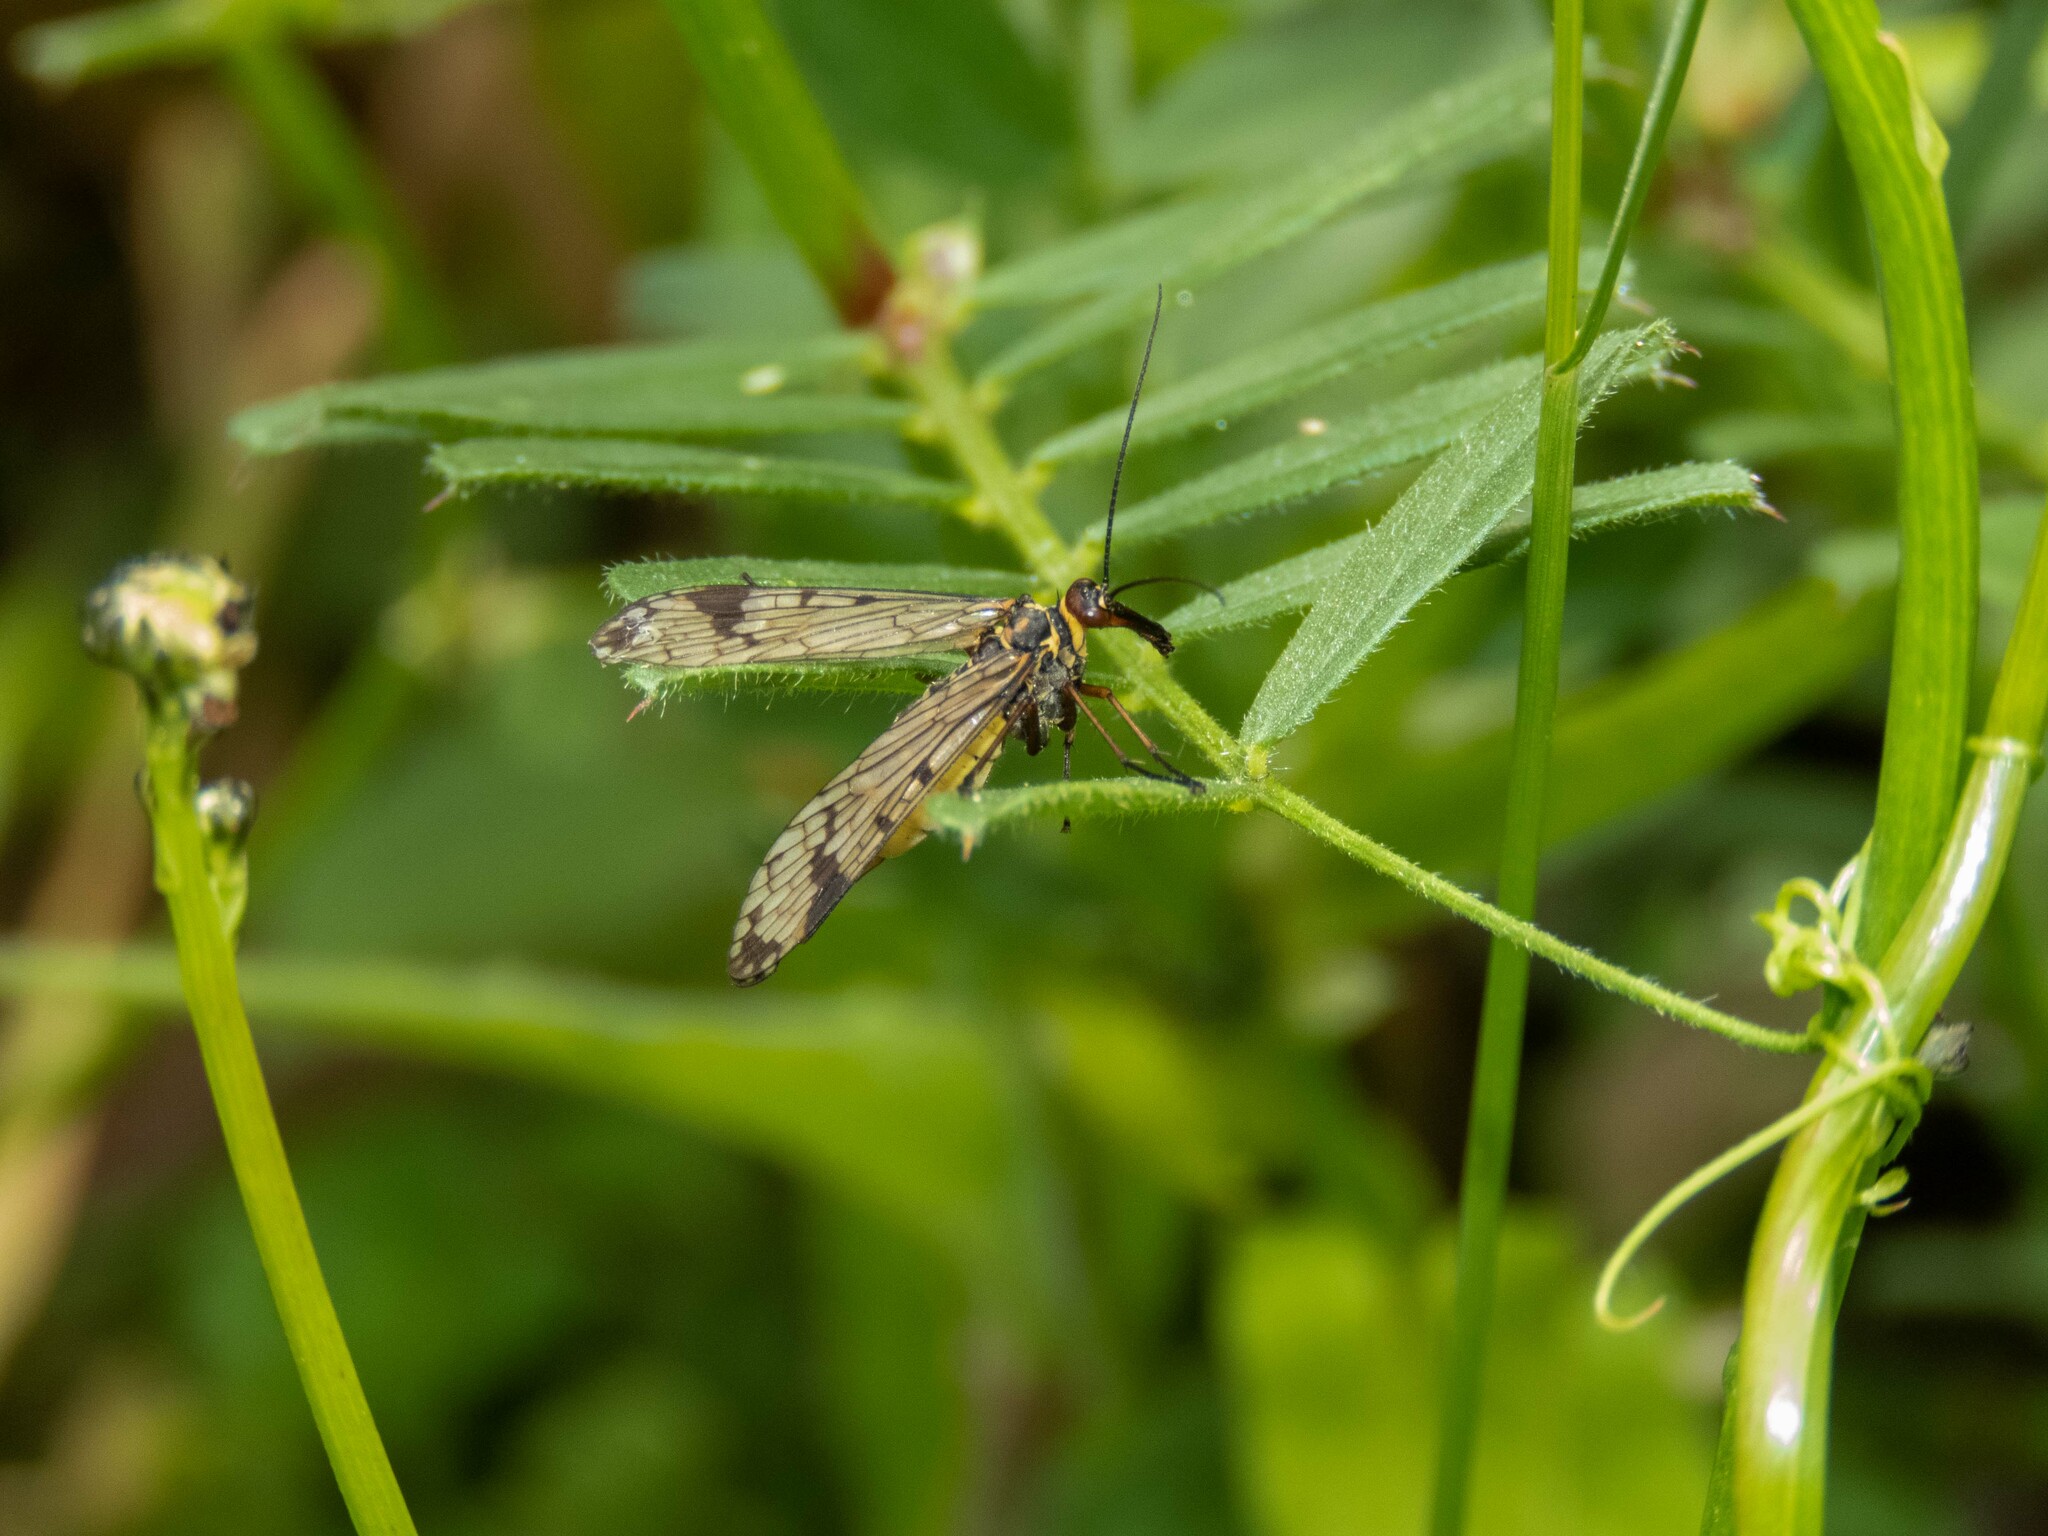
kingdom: Animalia
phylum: Arthropoda
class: Insecta
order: Mecoptera
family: Panorpidae
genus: Panorpa
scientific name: Panorpa meridionalis
